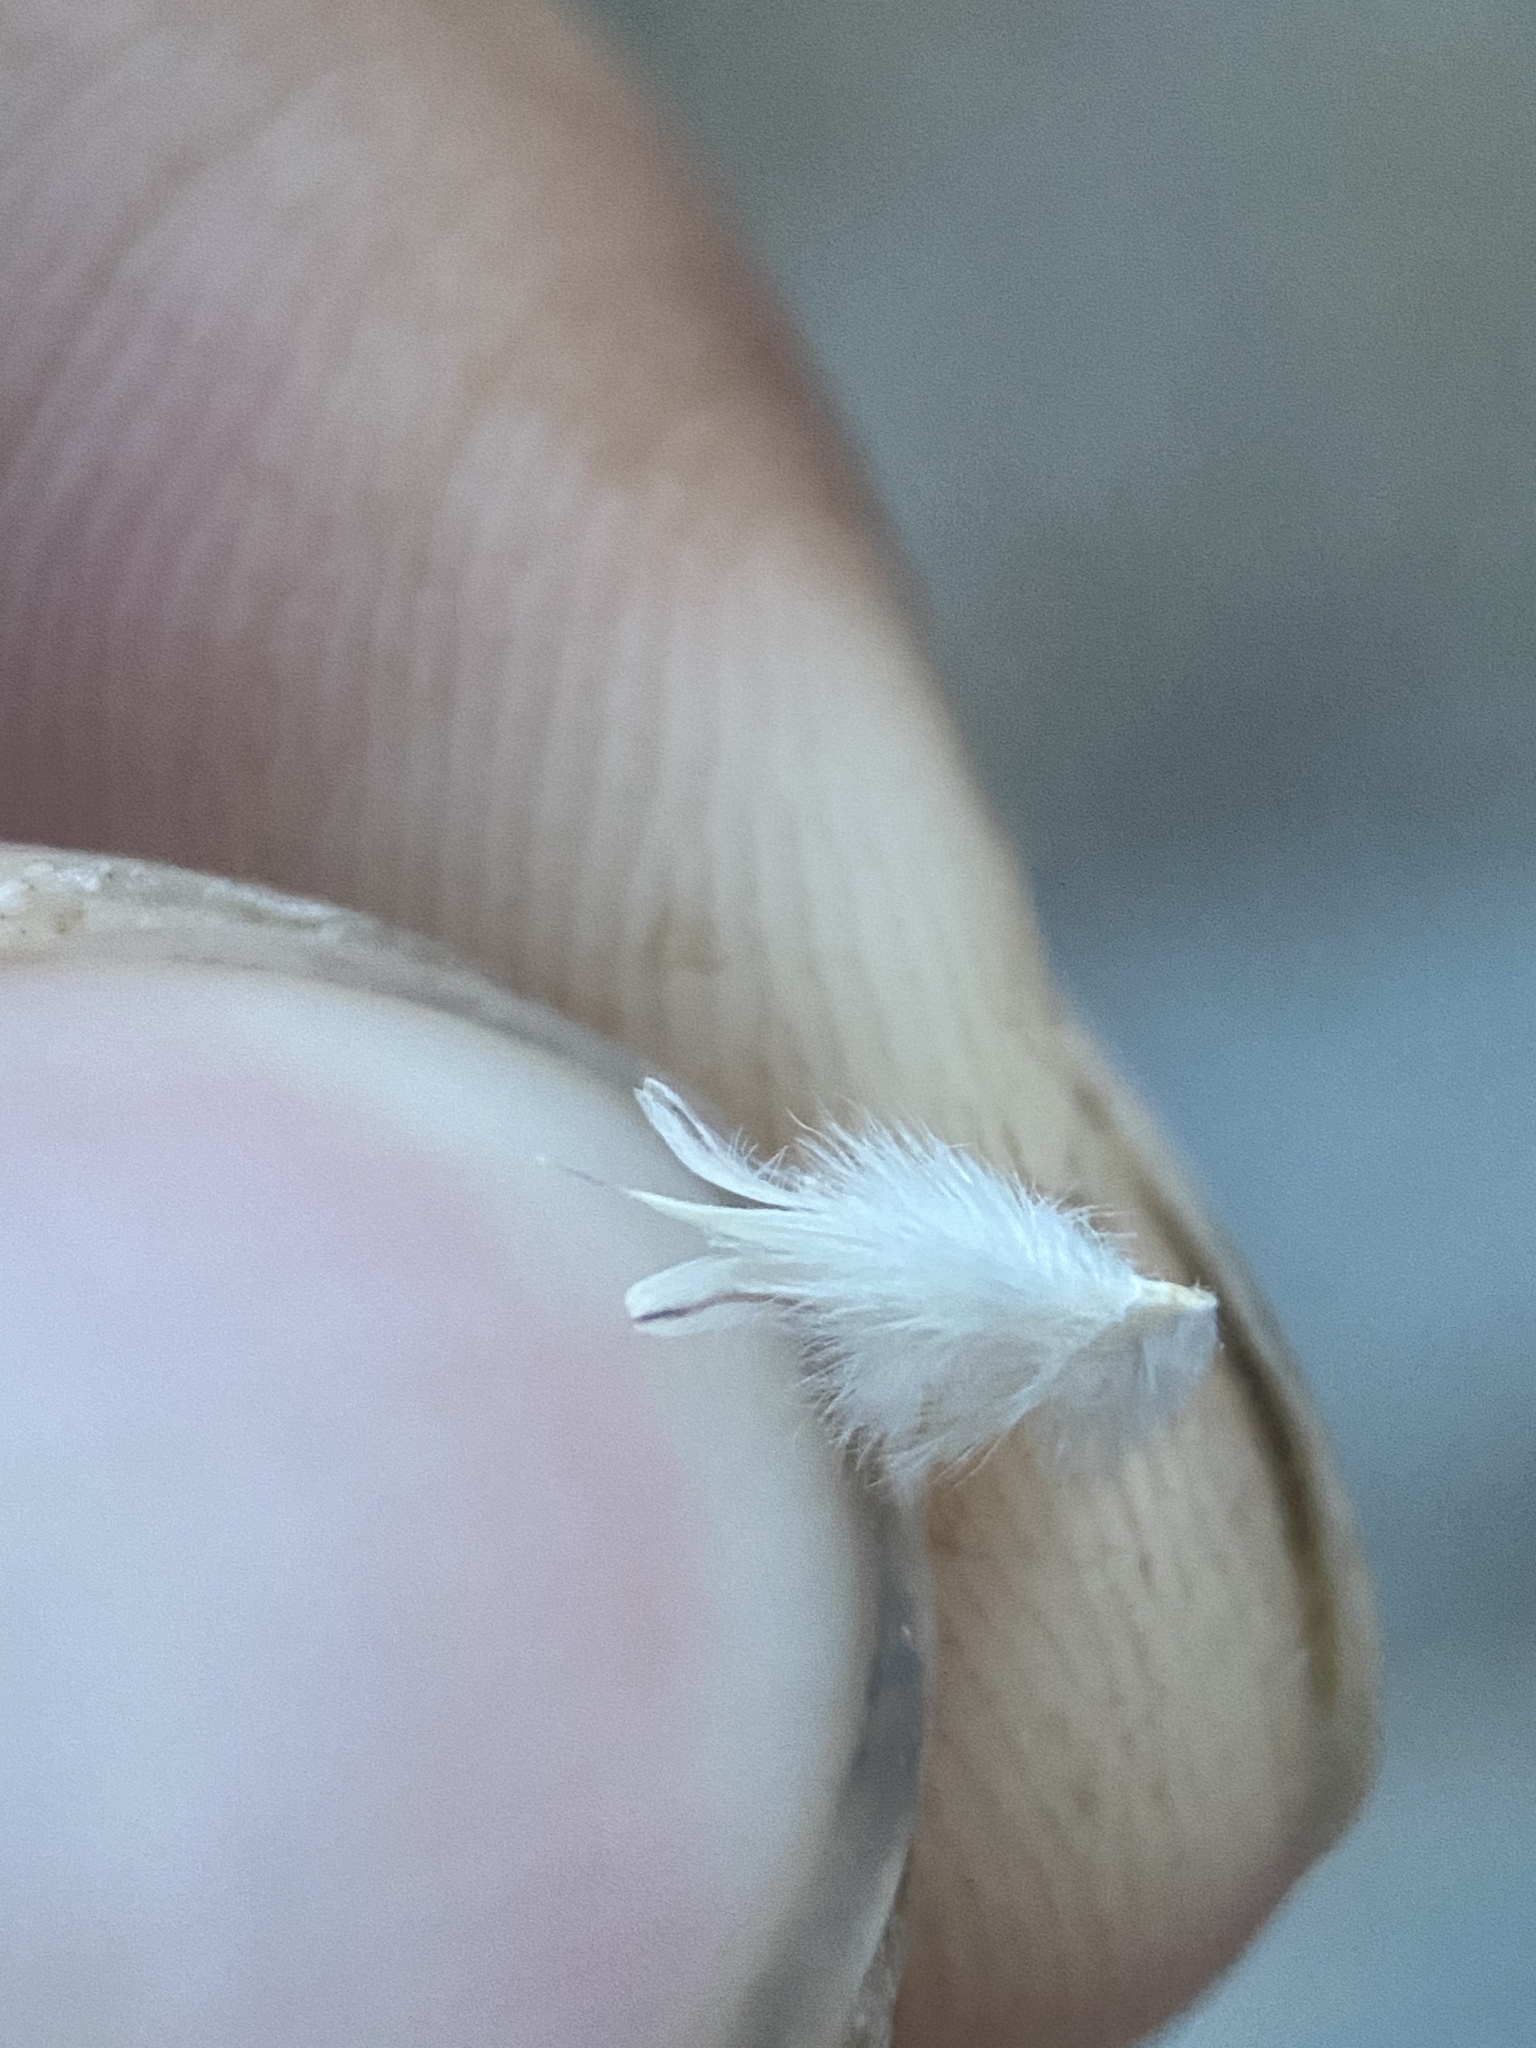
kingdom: Plantae
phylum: Tracheophyta
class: Liliopsida
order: Poales
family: Poaceae
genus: Dasyochloa
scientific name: Dasyochloa pulchella
